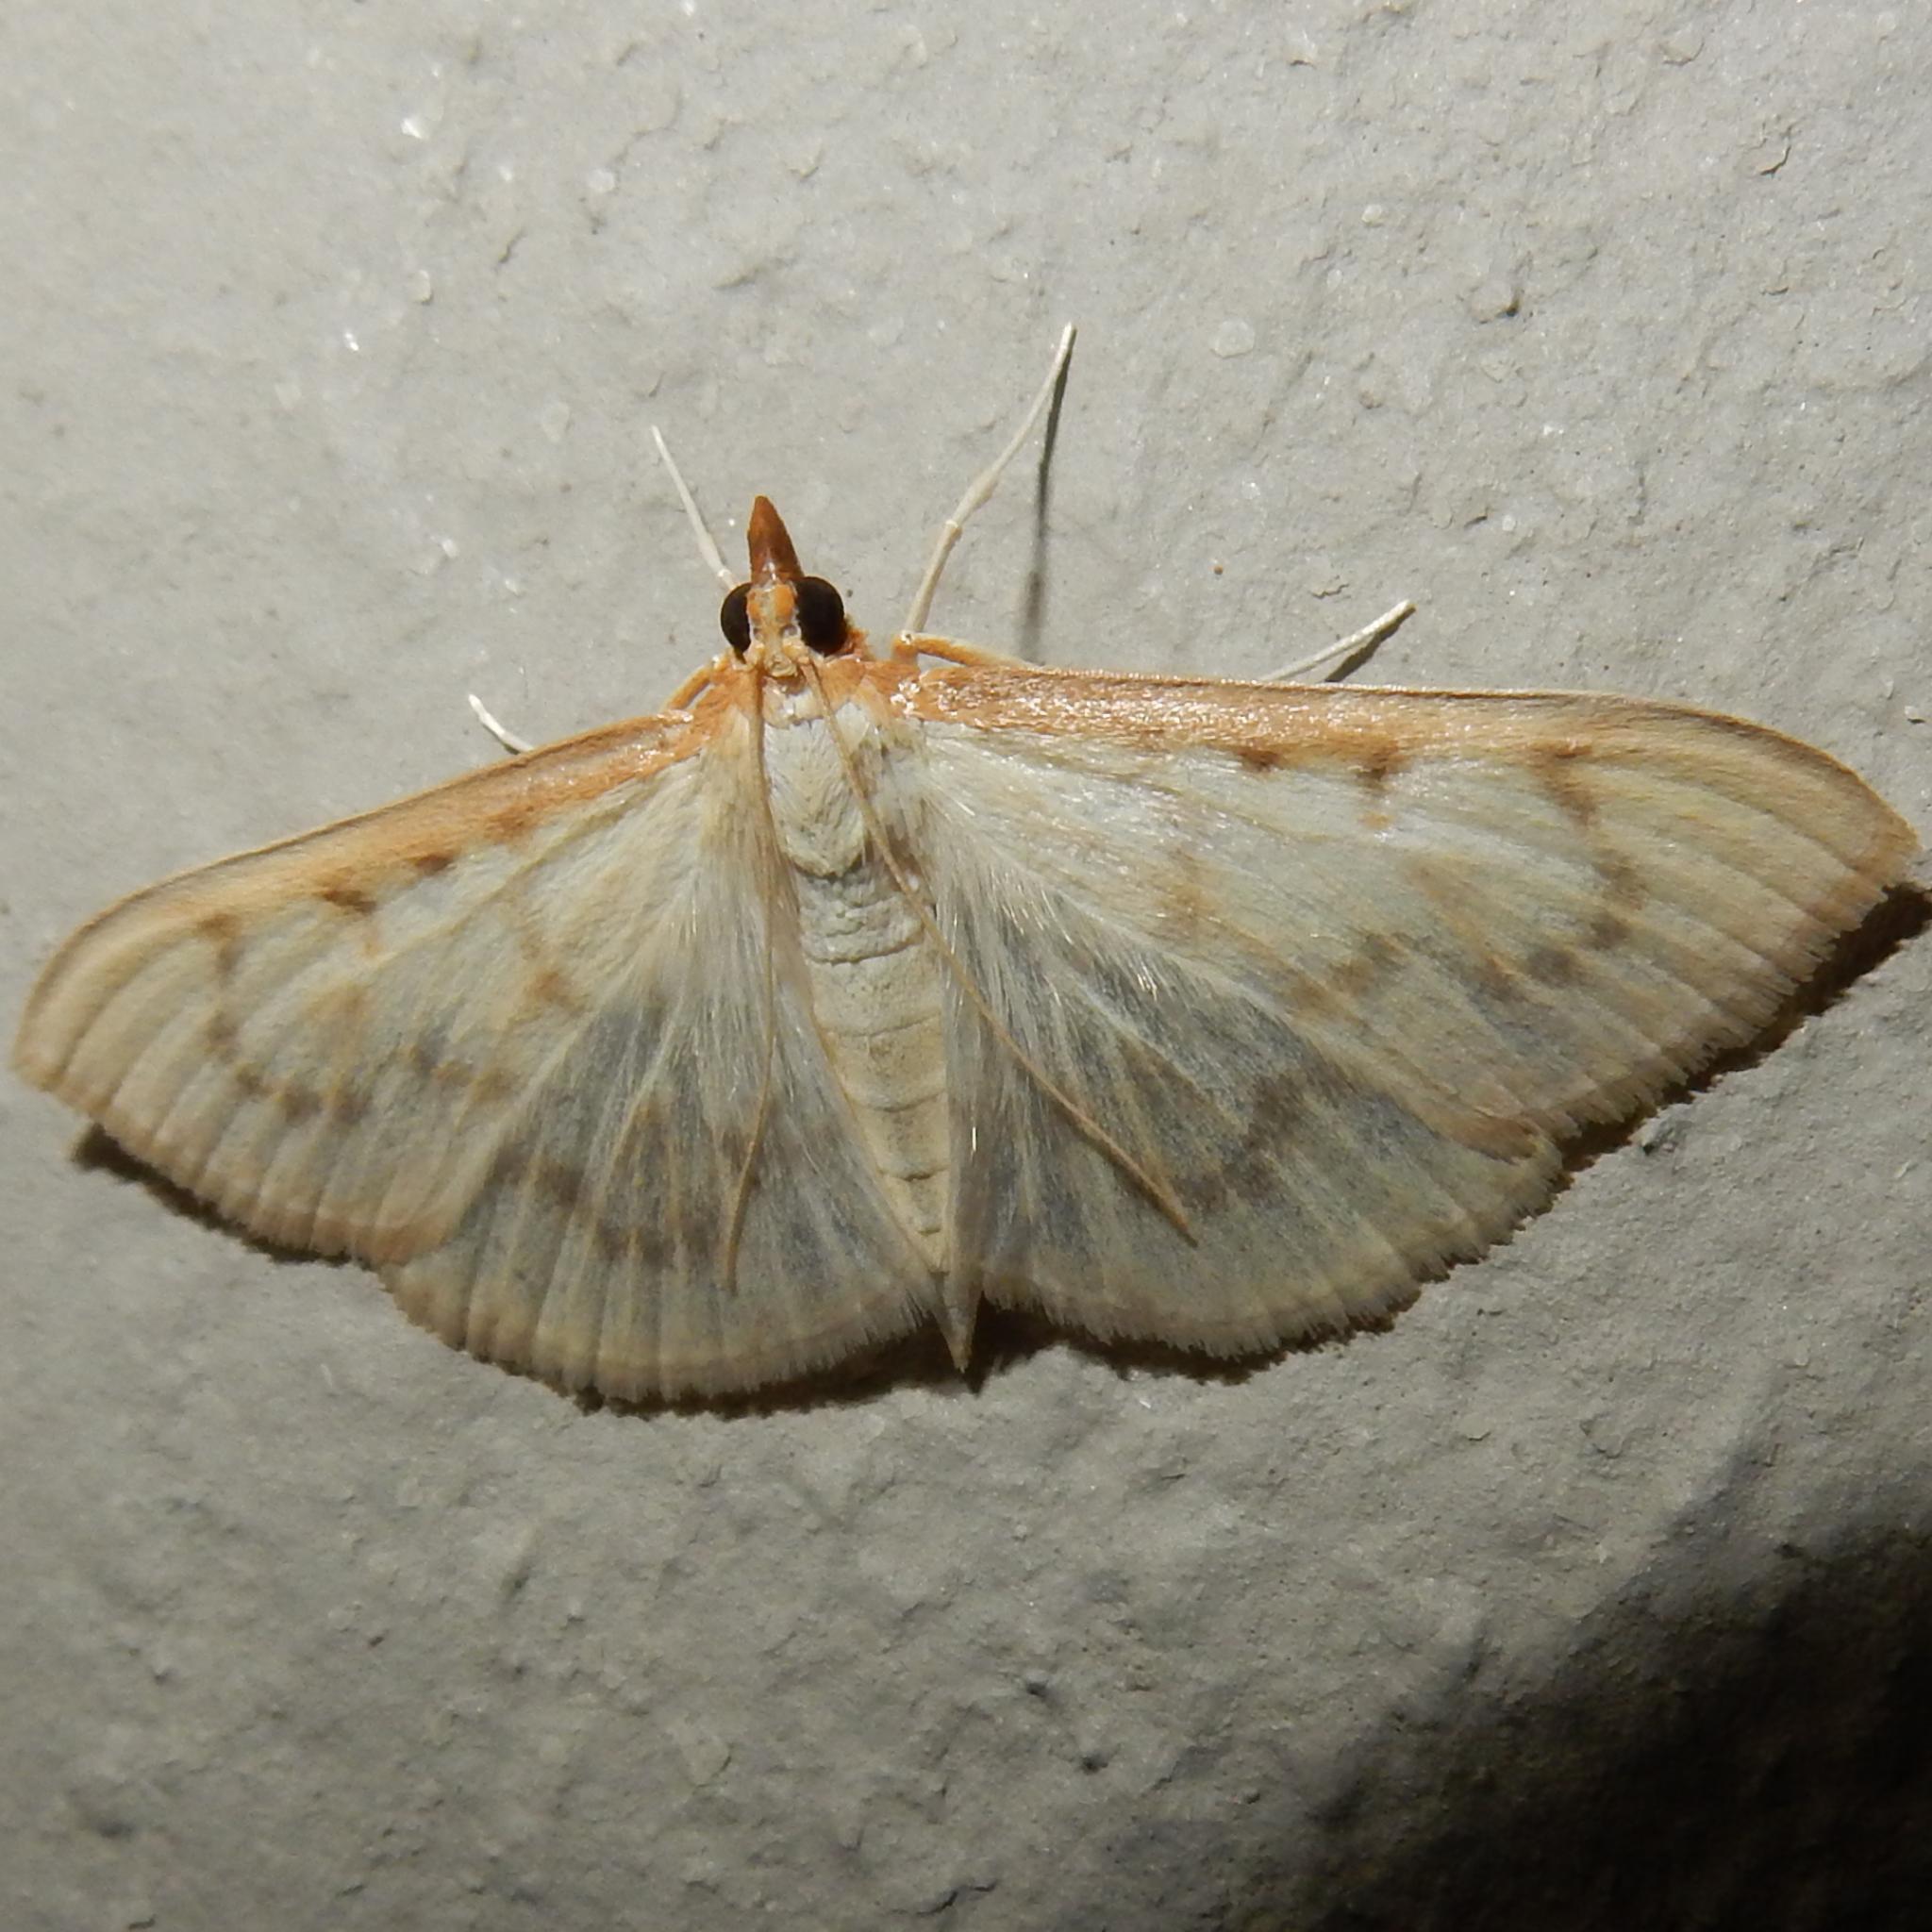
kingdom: Animalia
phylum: Arthropoda
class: Insecta
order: Lepidoptera
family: Crambidae
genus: Pyrausta
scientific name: Pyrausta testalis
